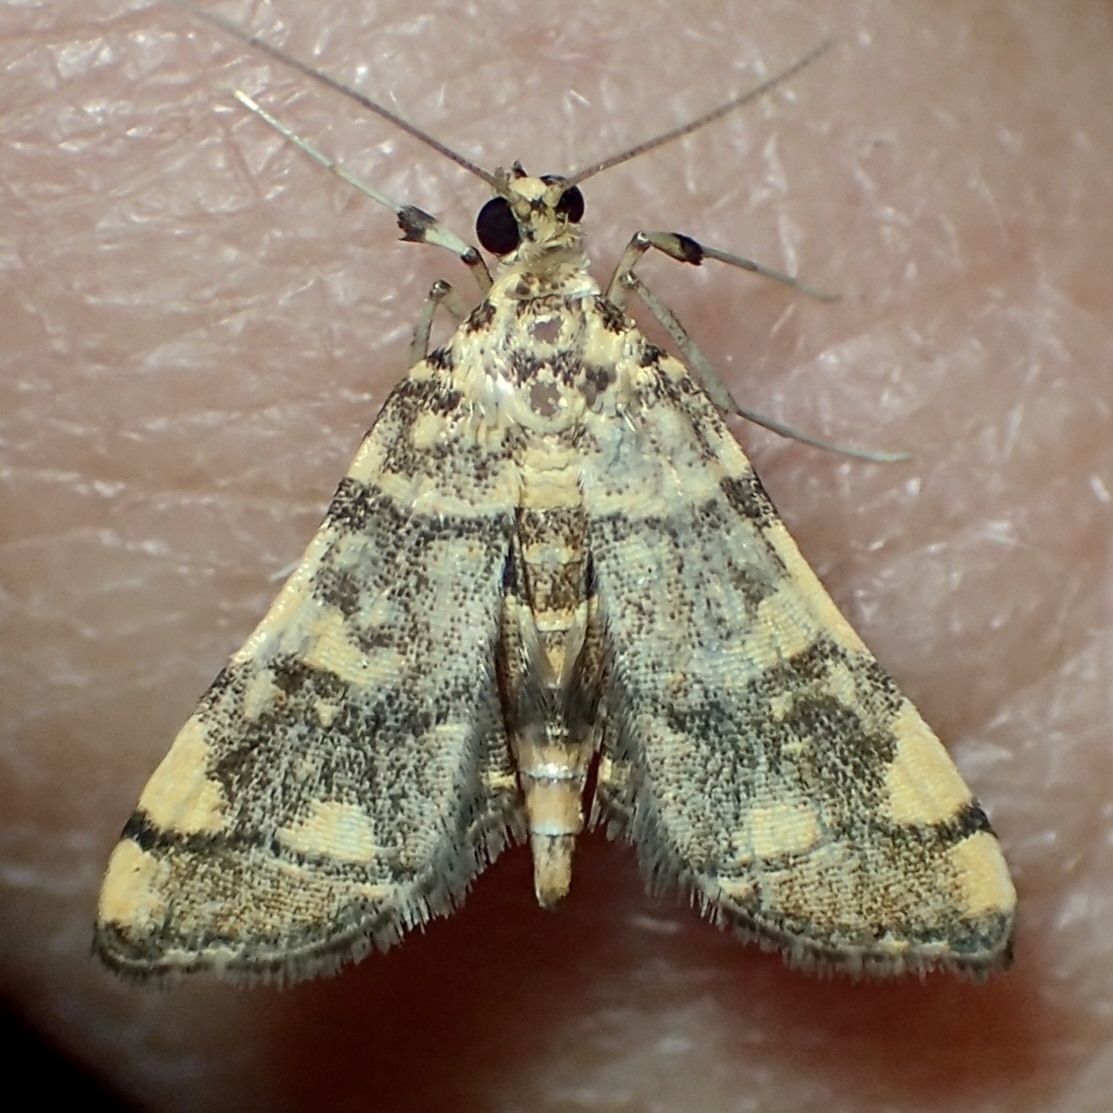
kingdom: Animalia
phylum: Arthropoda
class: Insecta
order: Lepidoptera
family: Crambidae
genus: Apogeshna
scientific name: Apogeshna stenialis
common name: Checkered apogeshna moth
